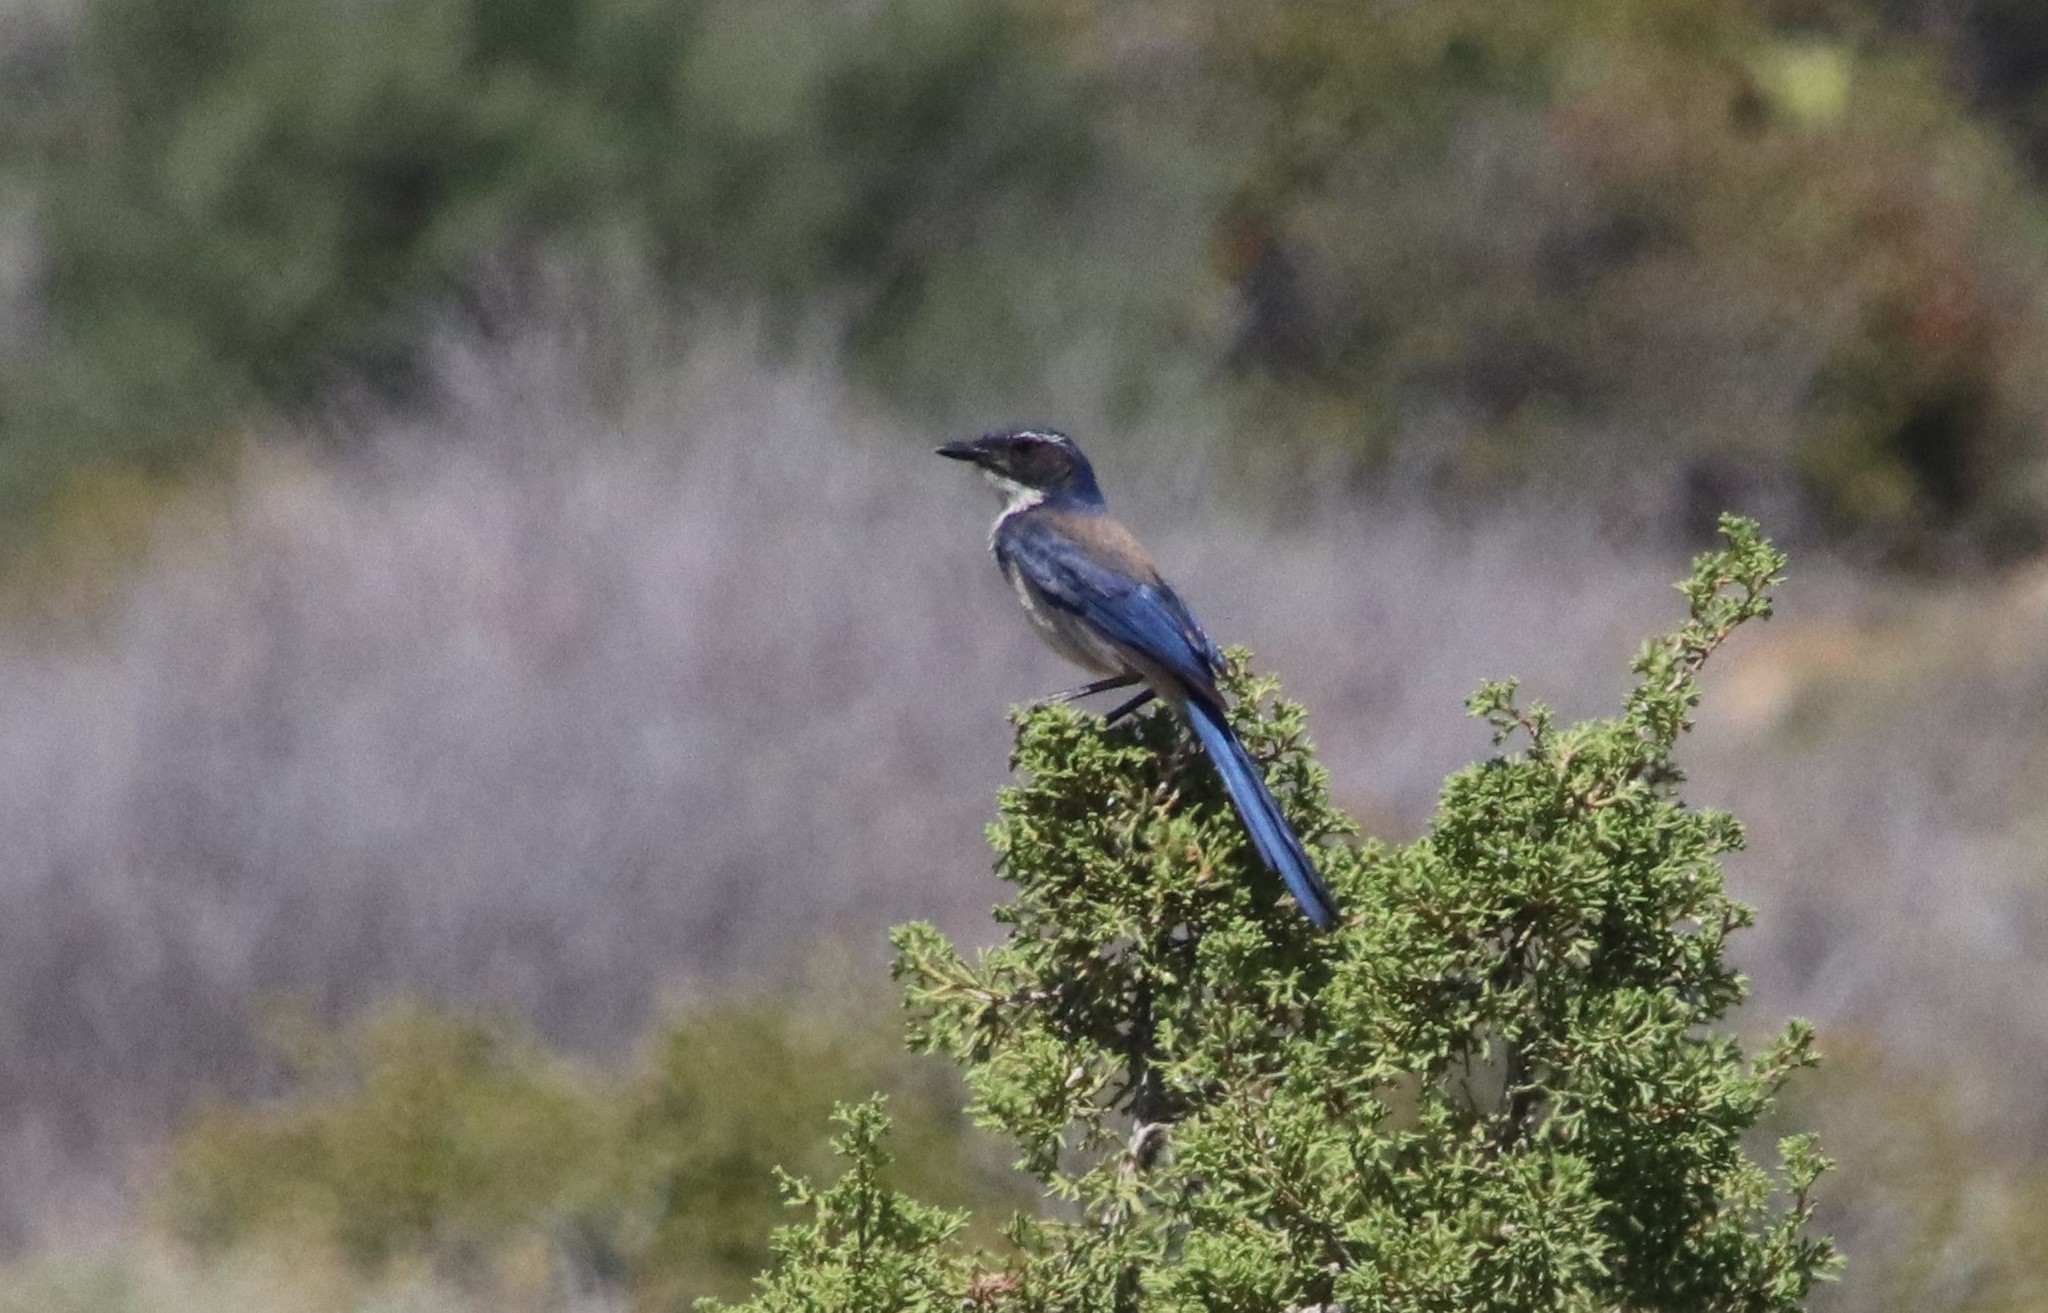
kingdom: Animalia
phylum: Chordata
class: Aves
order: Passeriformes
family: Corvidae
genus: Aphelocoma
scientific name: Aphelocoma californica
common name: California scrub-jay
